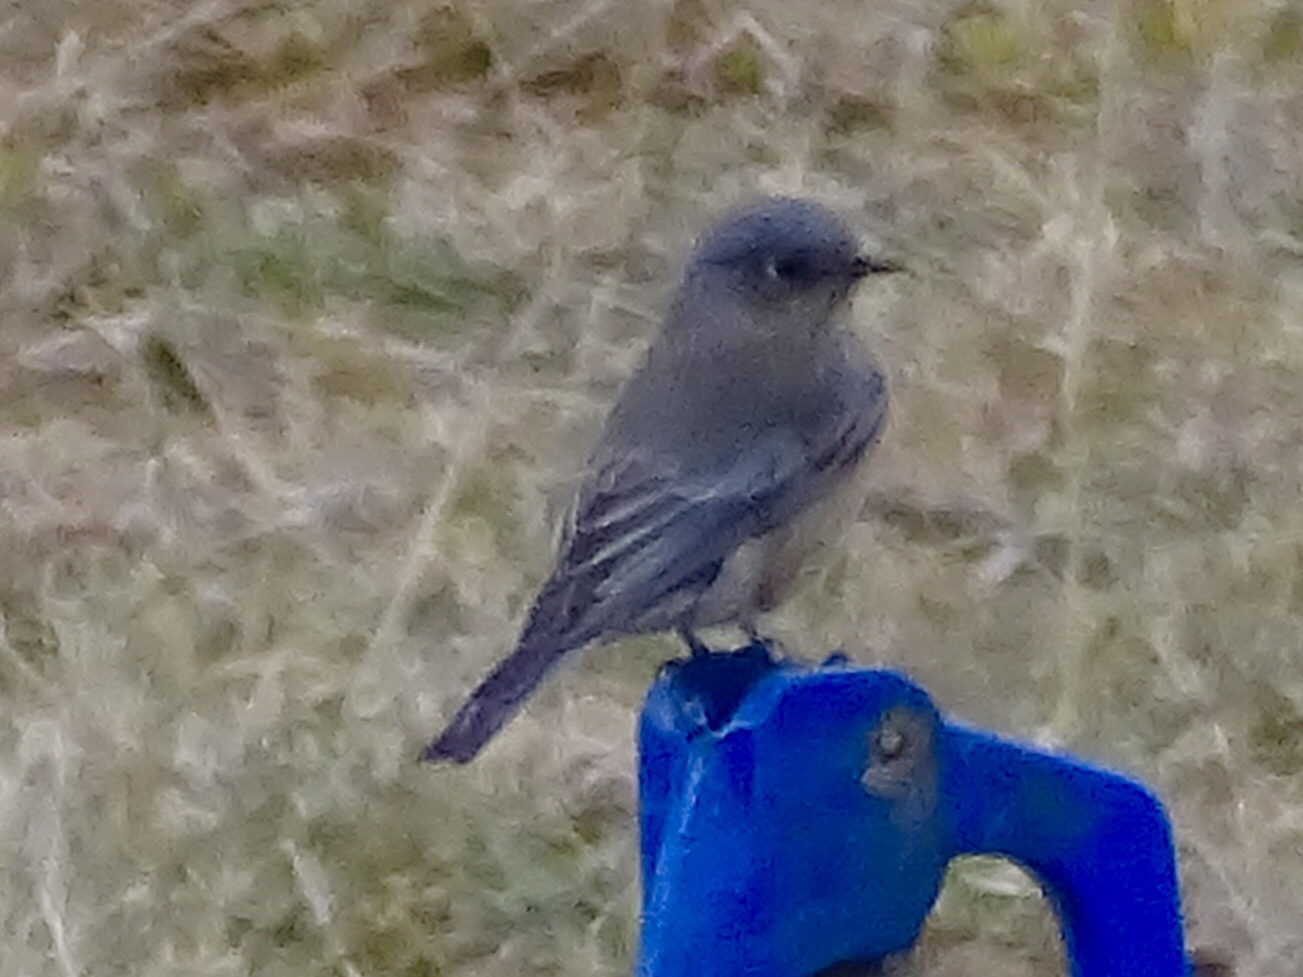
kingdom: Animalia
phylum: Chordata
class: Aves
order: Passeriformes
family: Turdidae
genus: Sialia
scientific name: Sialia mexicana
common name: Western bluebird
